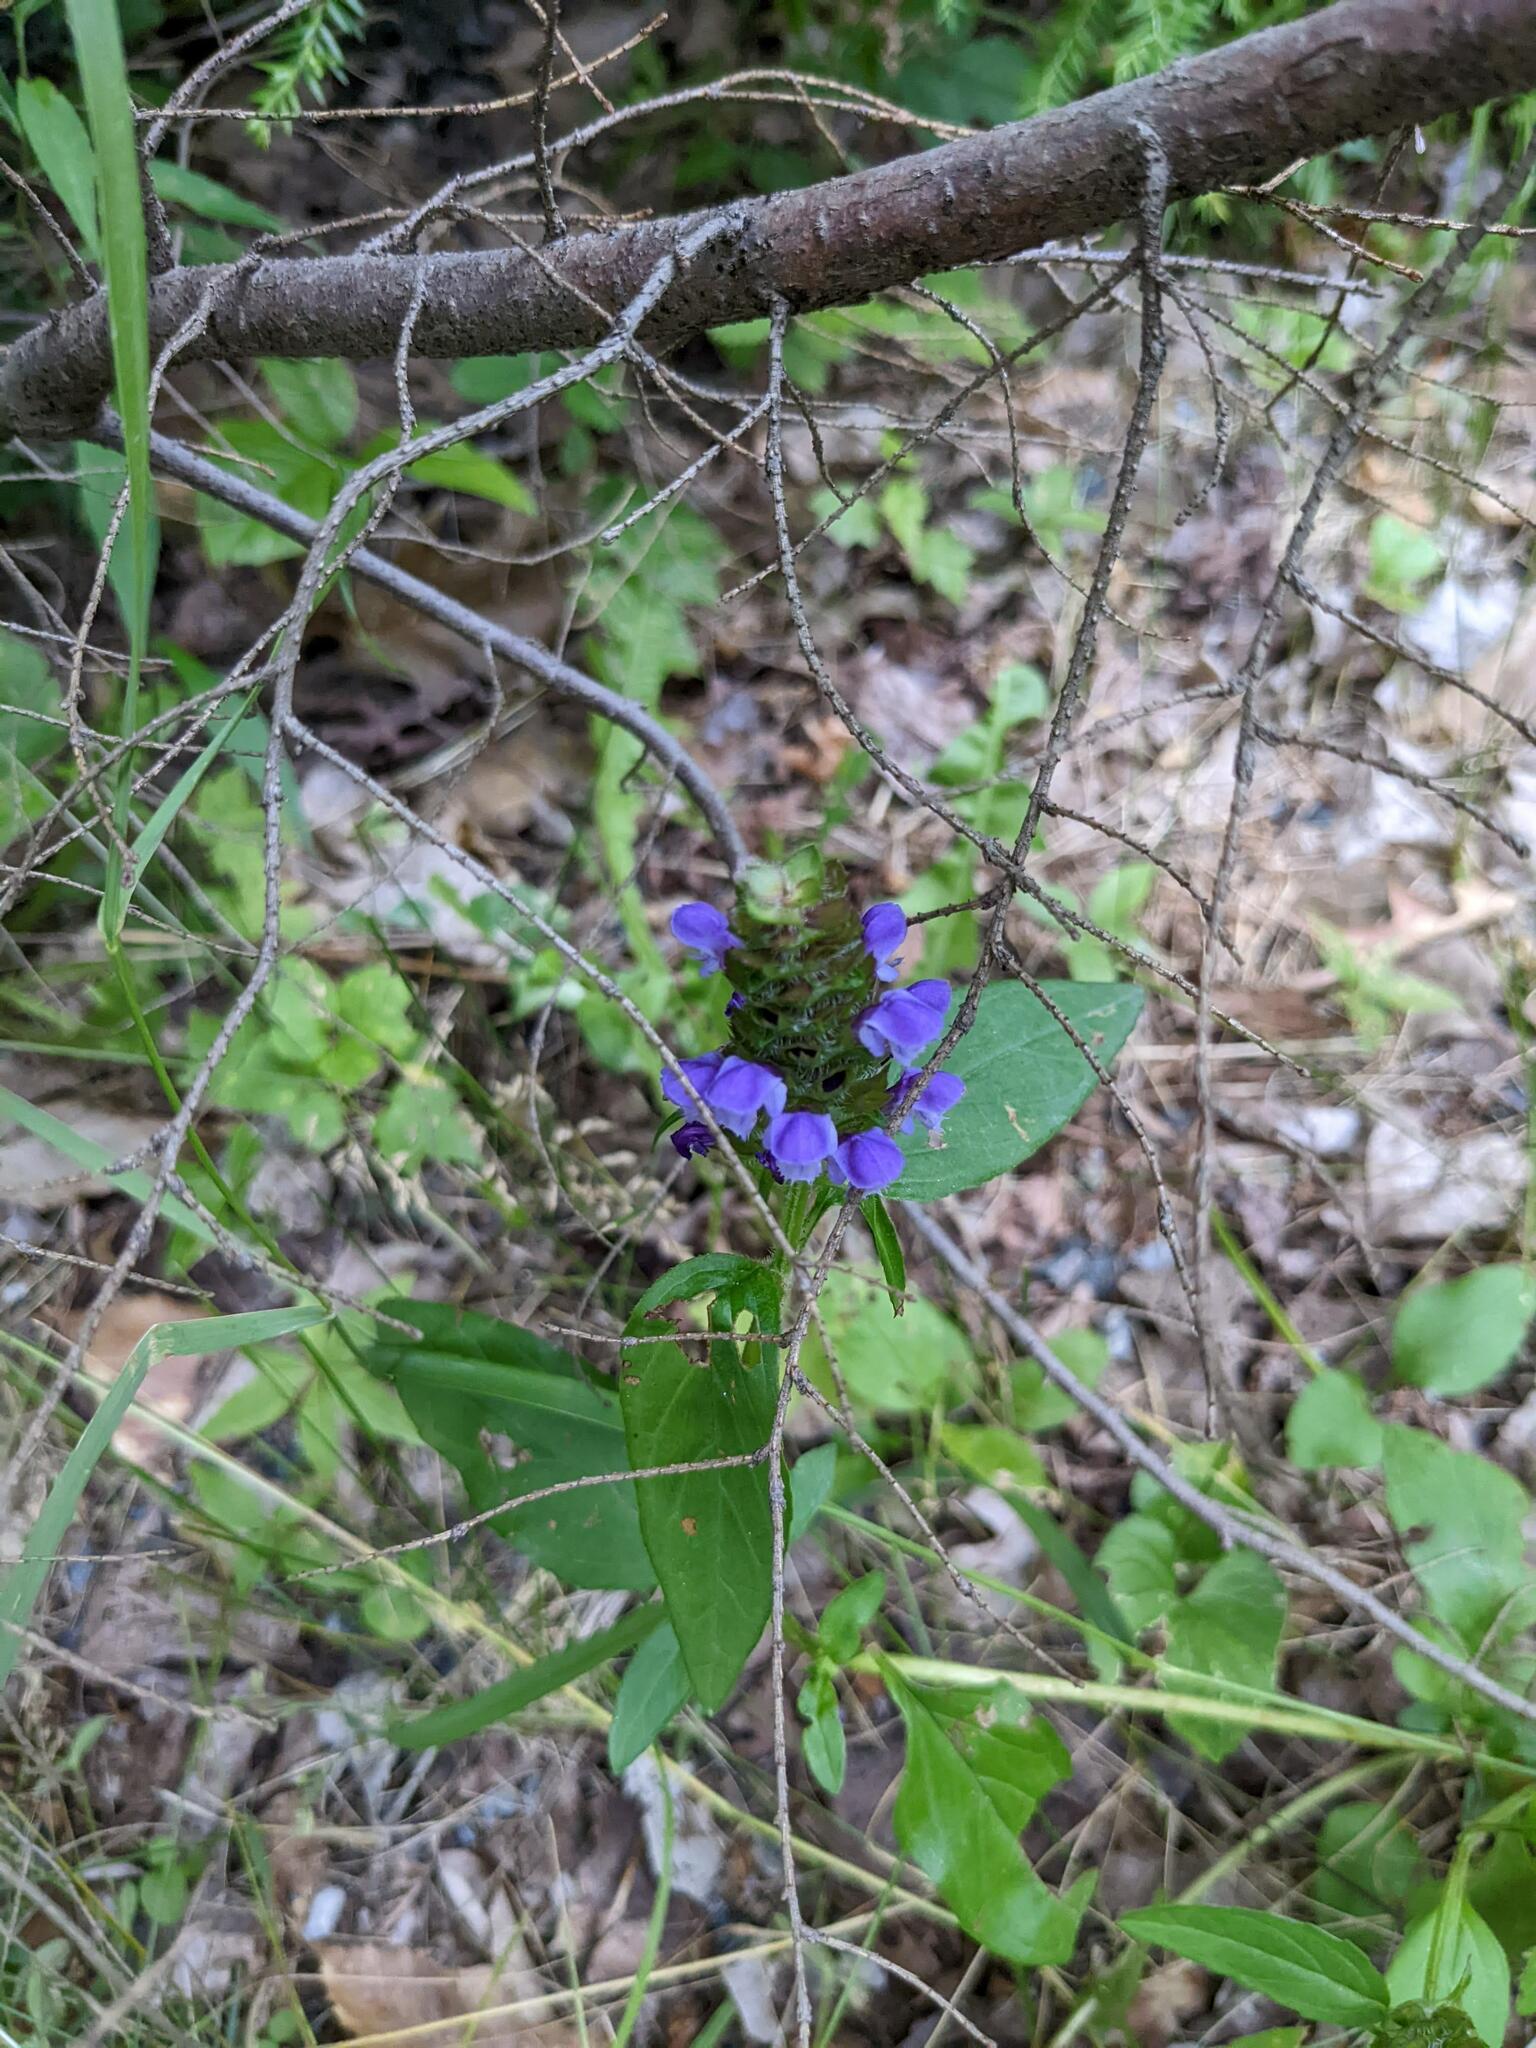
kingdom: Plantae
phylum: Tracheophyta
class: Magnoliopsida
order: Lamiales
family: Lamiaceae
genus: Prunella
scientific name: Prunella vulgaris
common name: Heal-all
